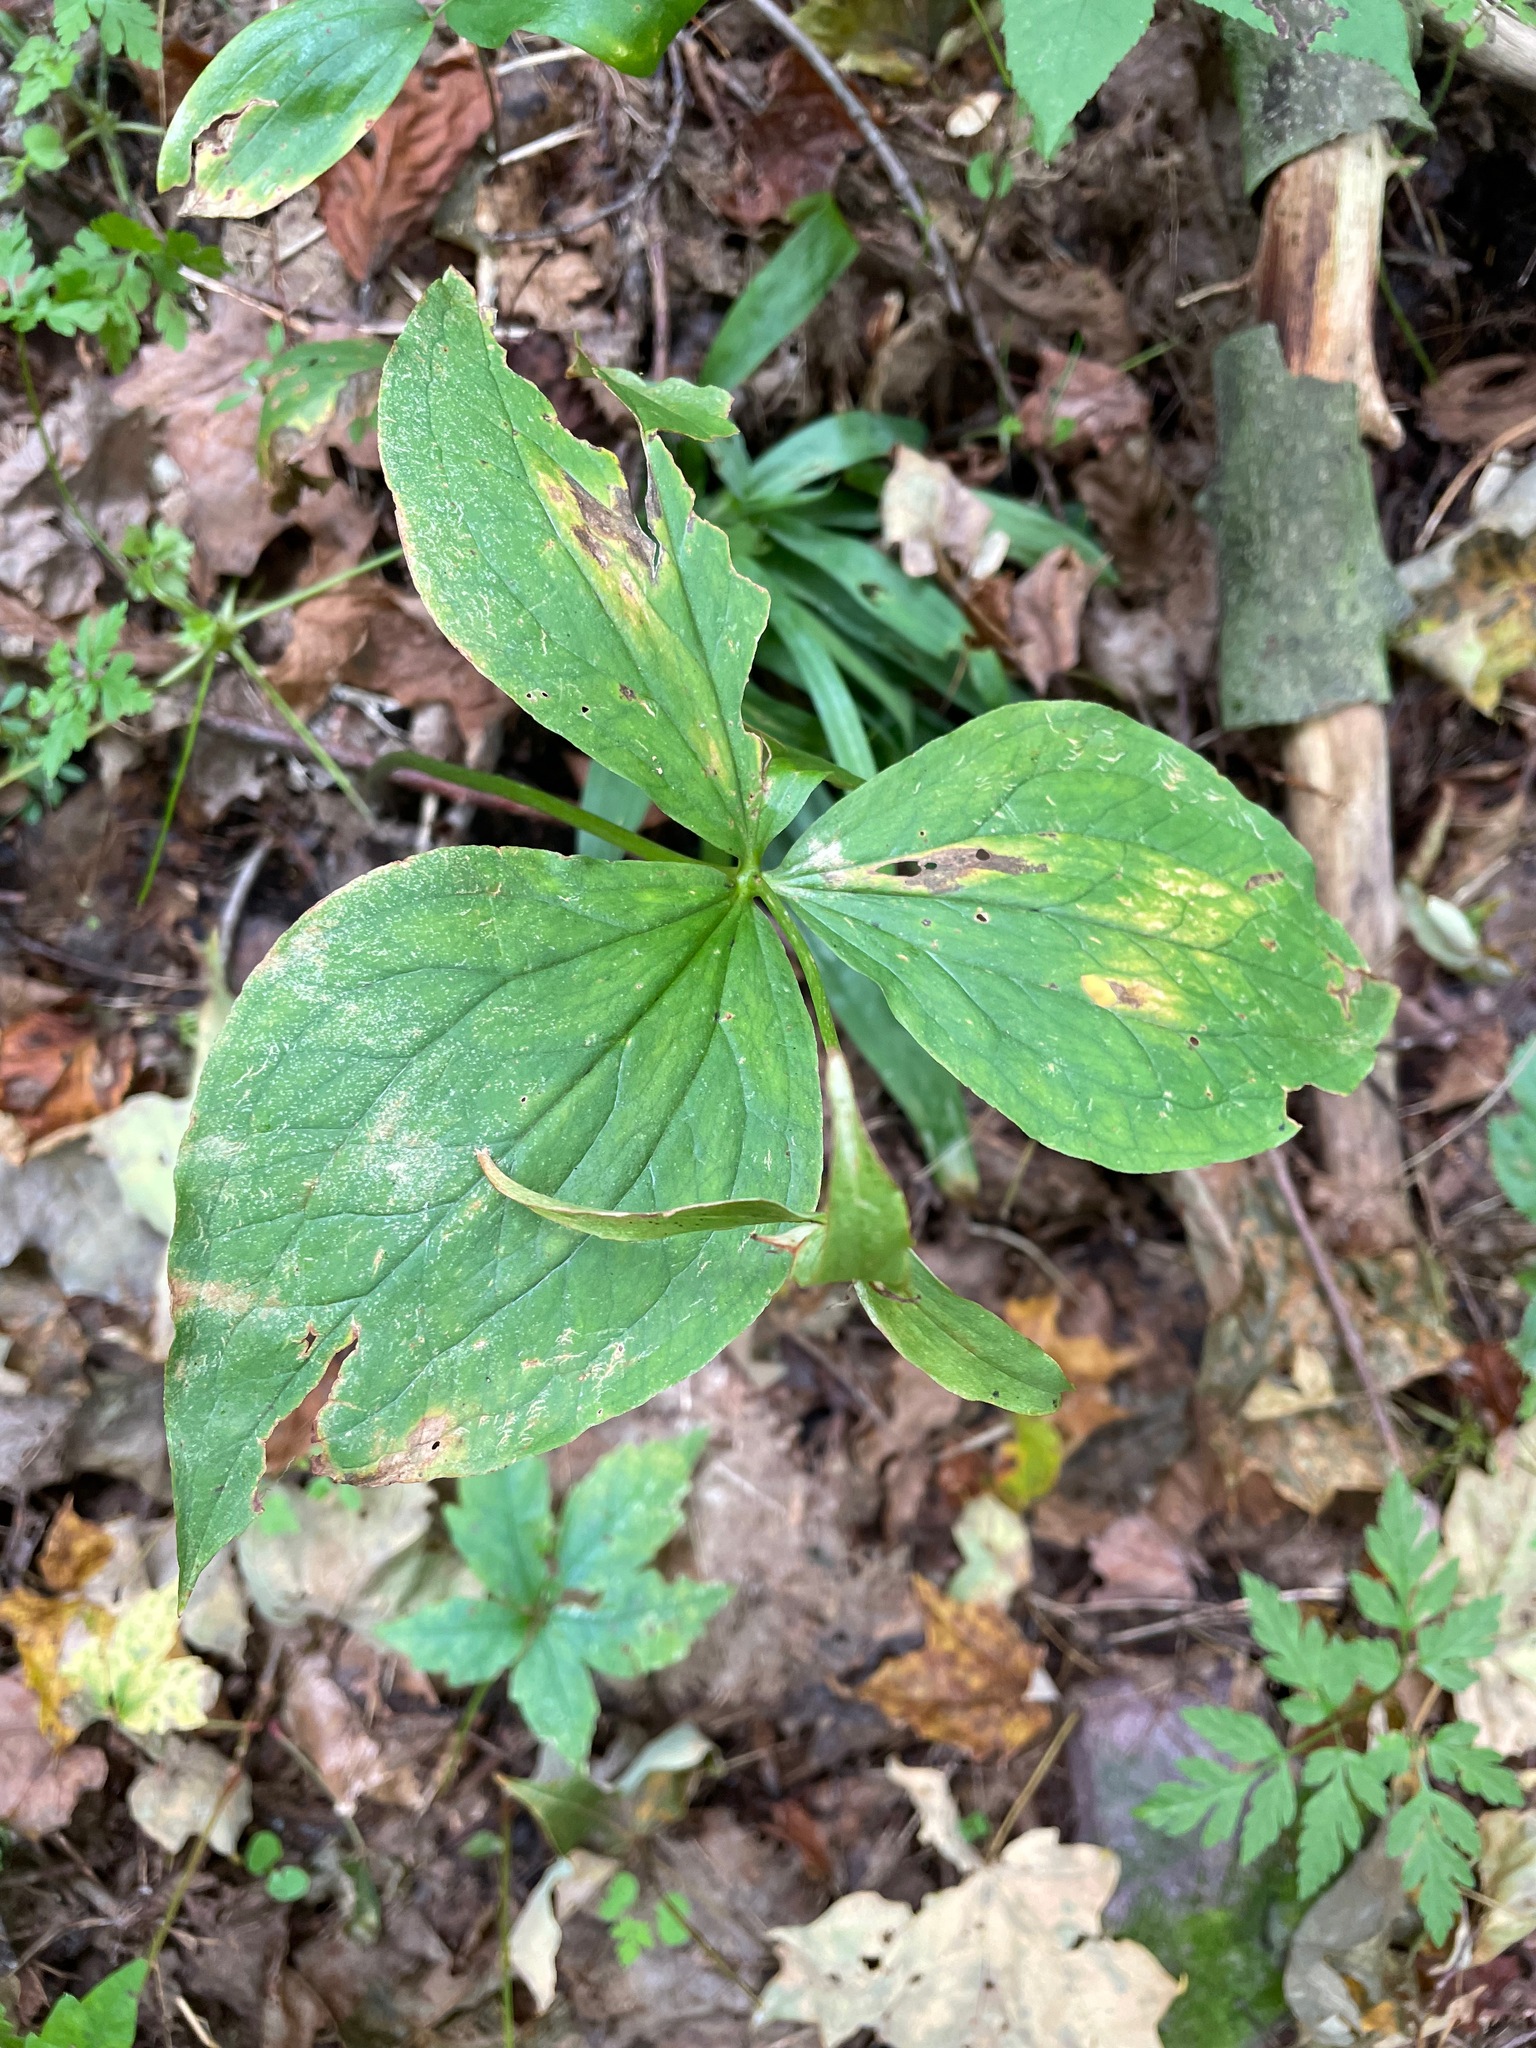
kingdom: Plantae
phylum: Tracheophyta
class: Liliopsida
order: Liliales
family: Melanthiaceae
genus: Trillium
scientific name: Trillium grandiflorum
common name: Great white trillium
